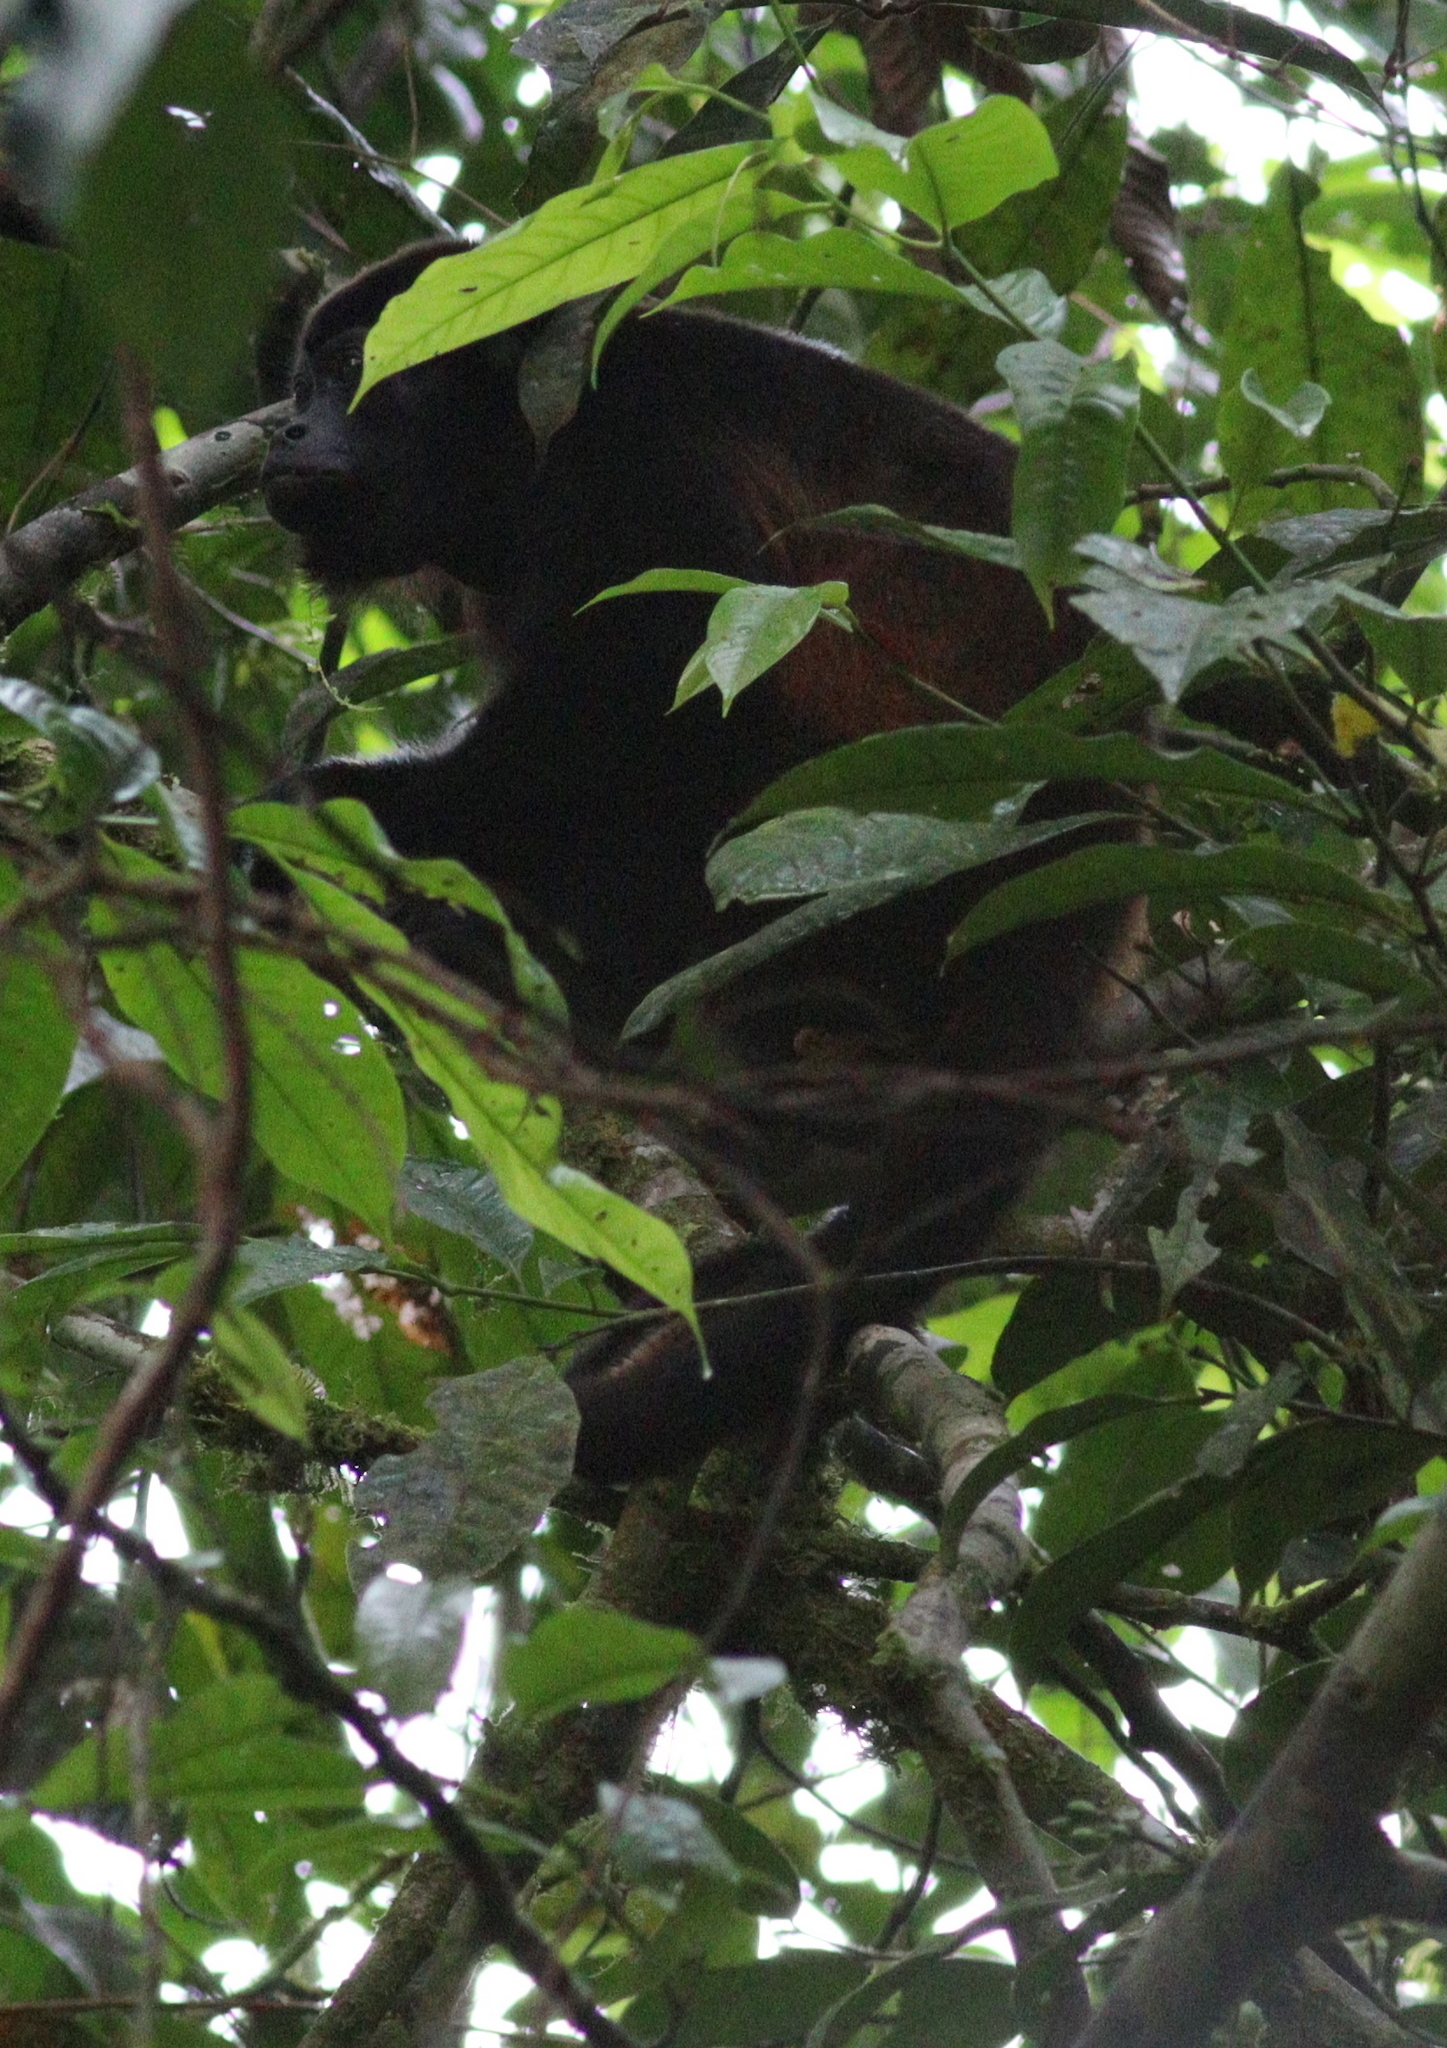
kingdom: Animalia
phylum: Chordata
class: Mammalia
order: Primates
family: Atelidae
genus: Alouatta
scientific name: Alouatta palliata
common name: Mantled howler
